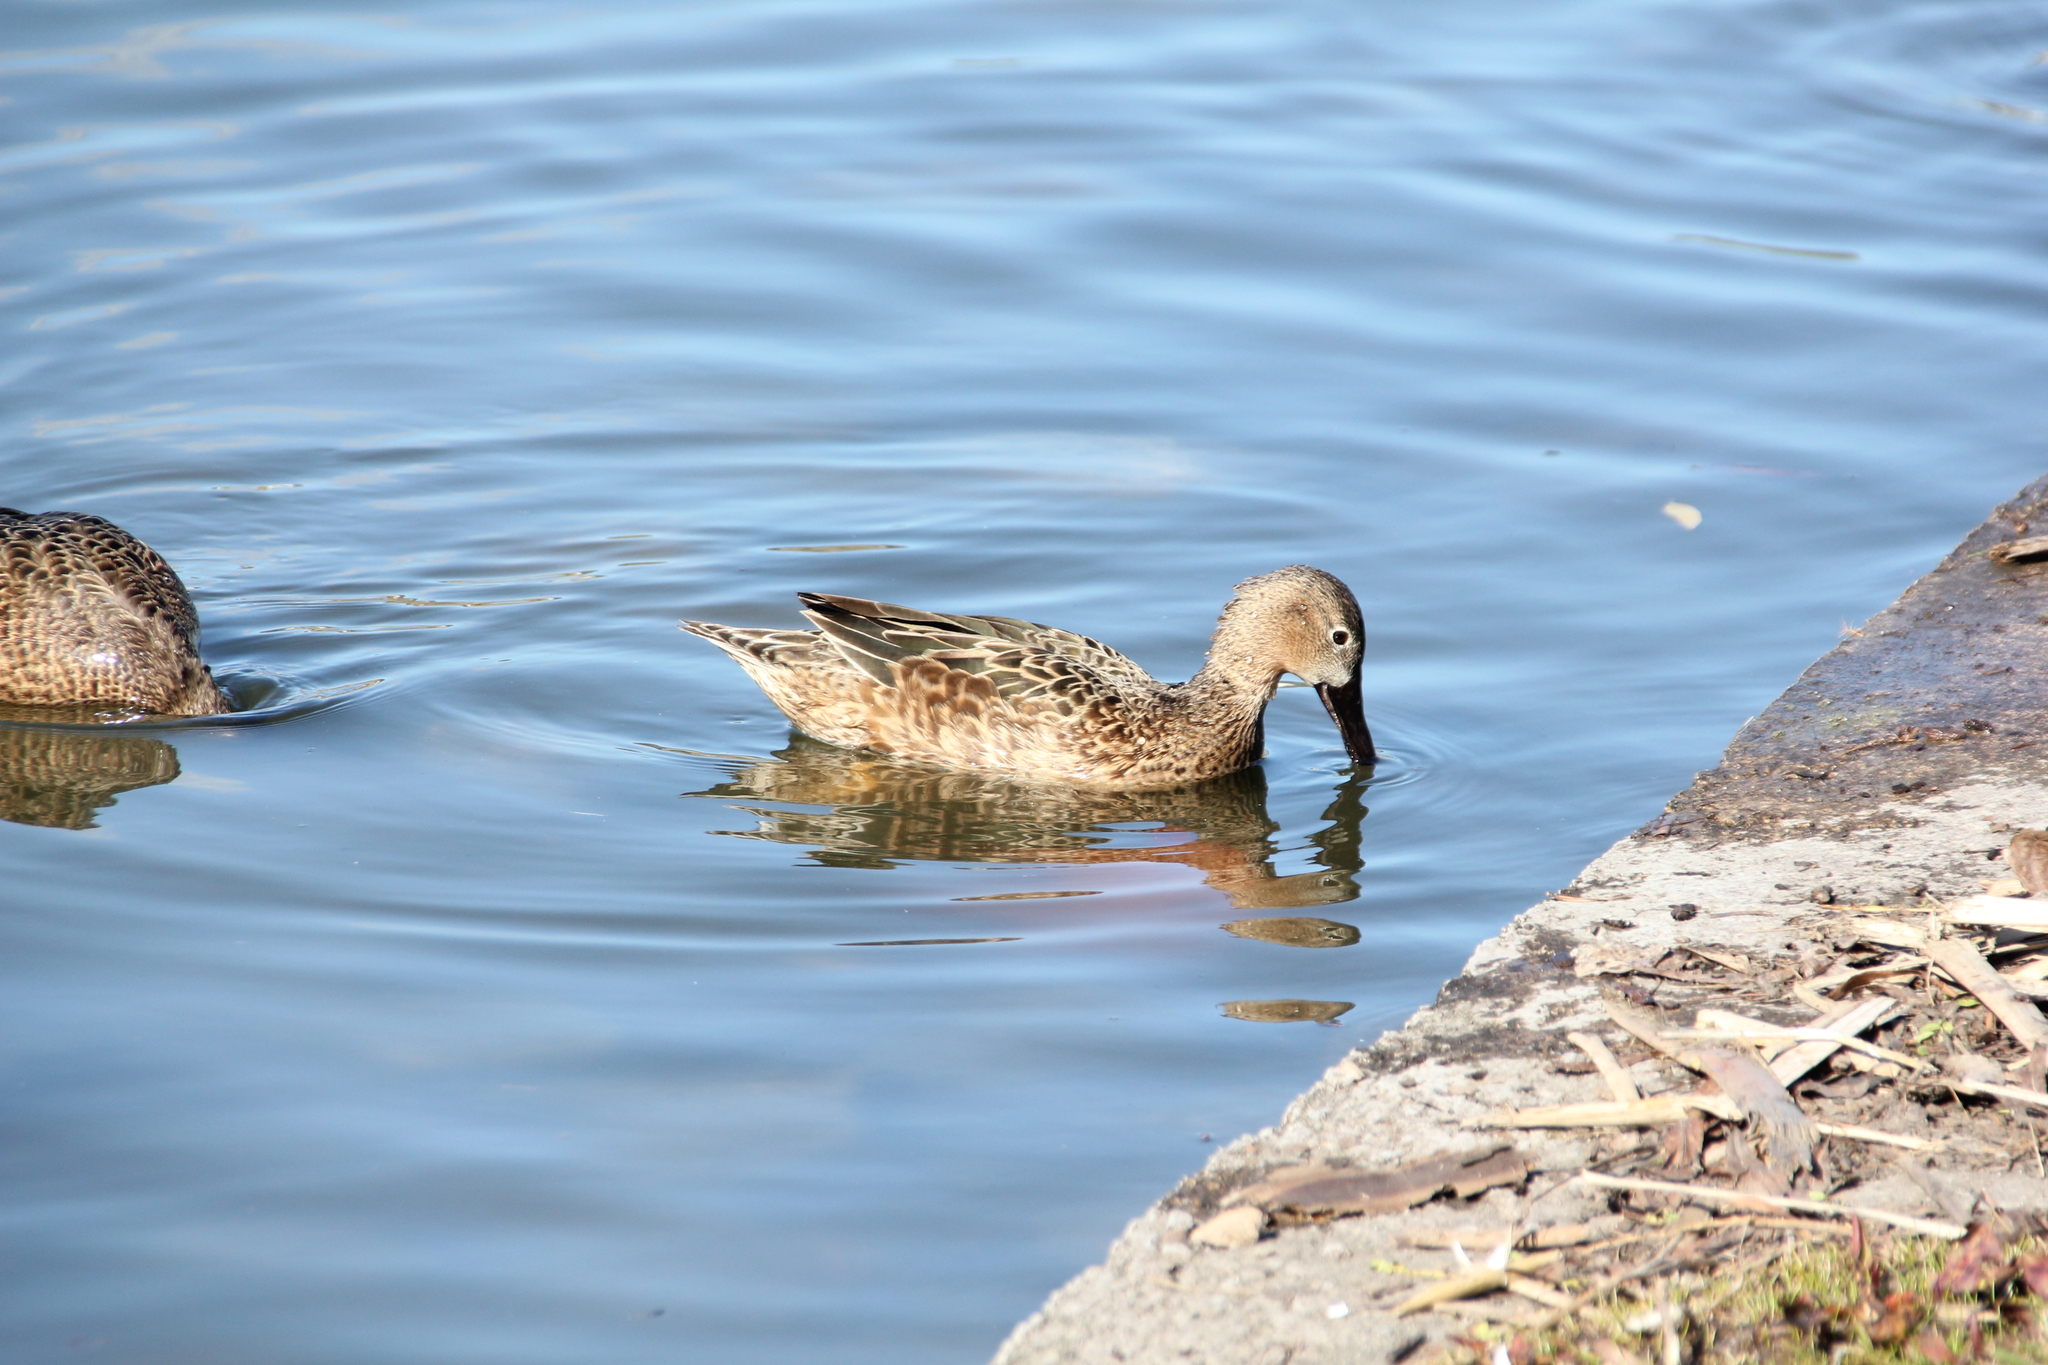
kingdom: Animalia
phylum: Chordata
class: Aves
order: Anseriformes
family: Anatidae
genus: Spatula
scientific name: Spatula cyanoptera
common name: Cinnamon teal
